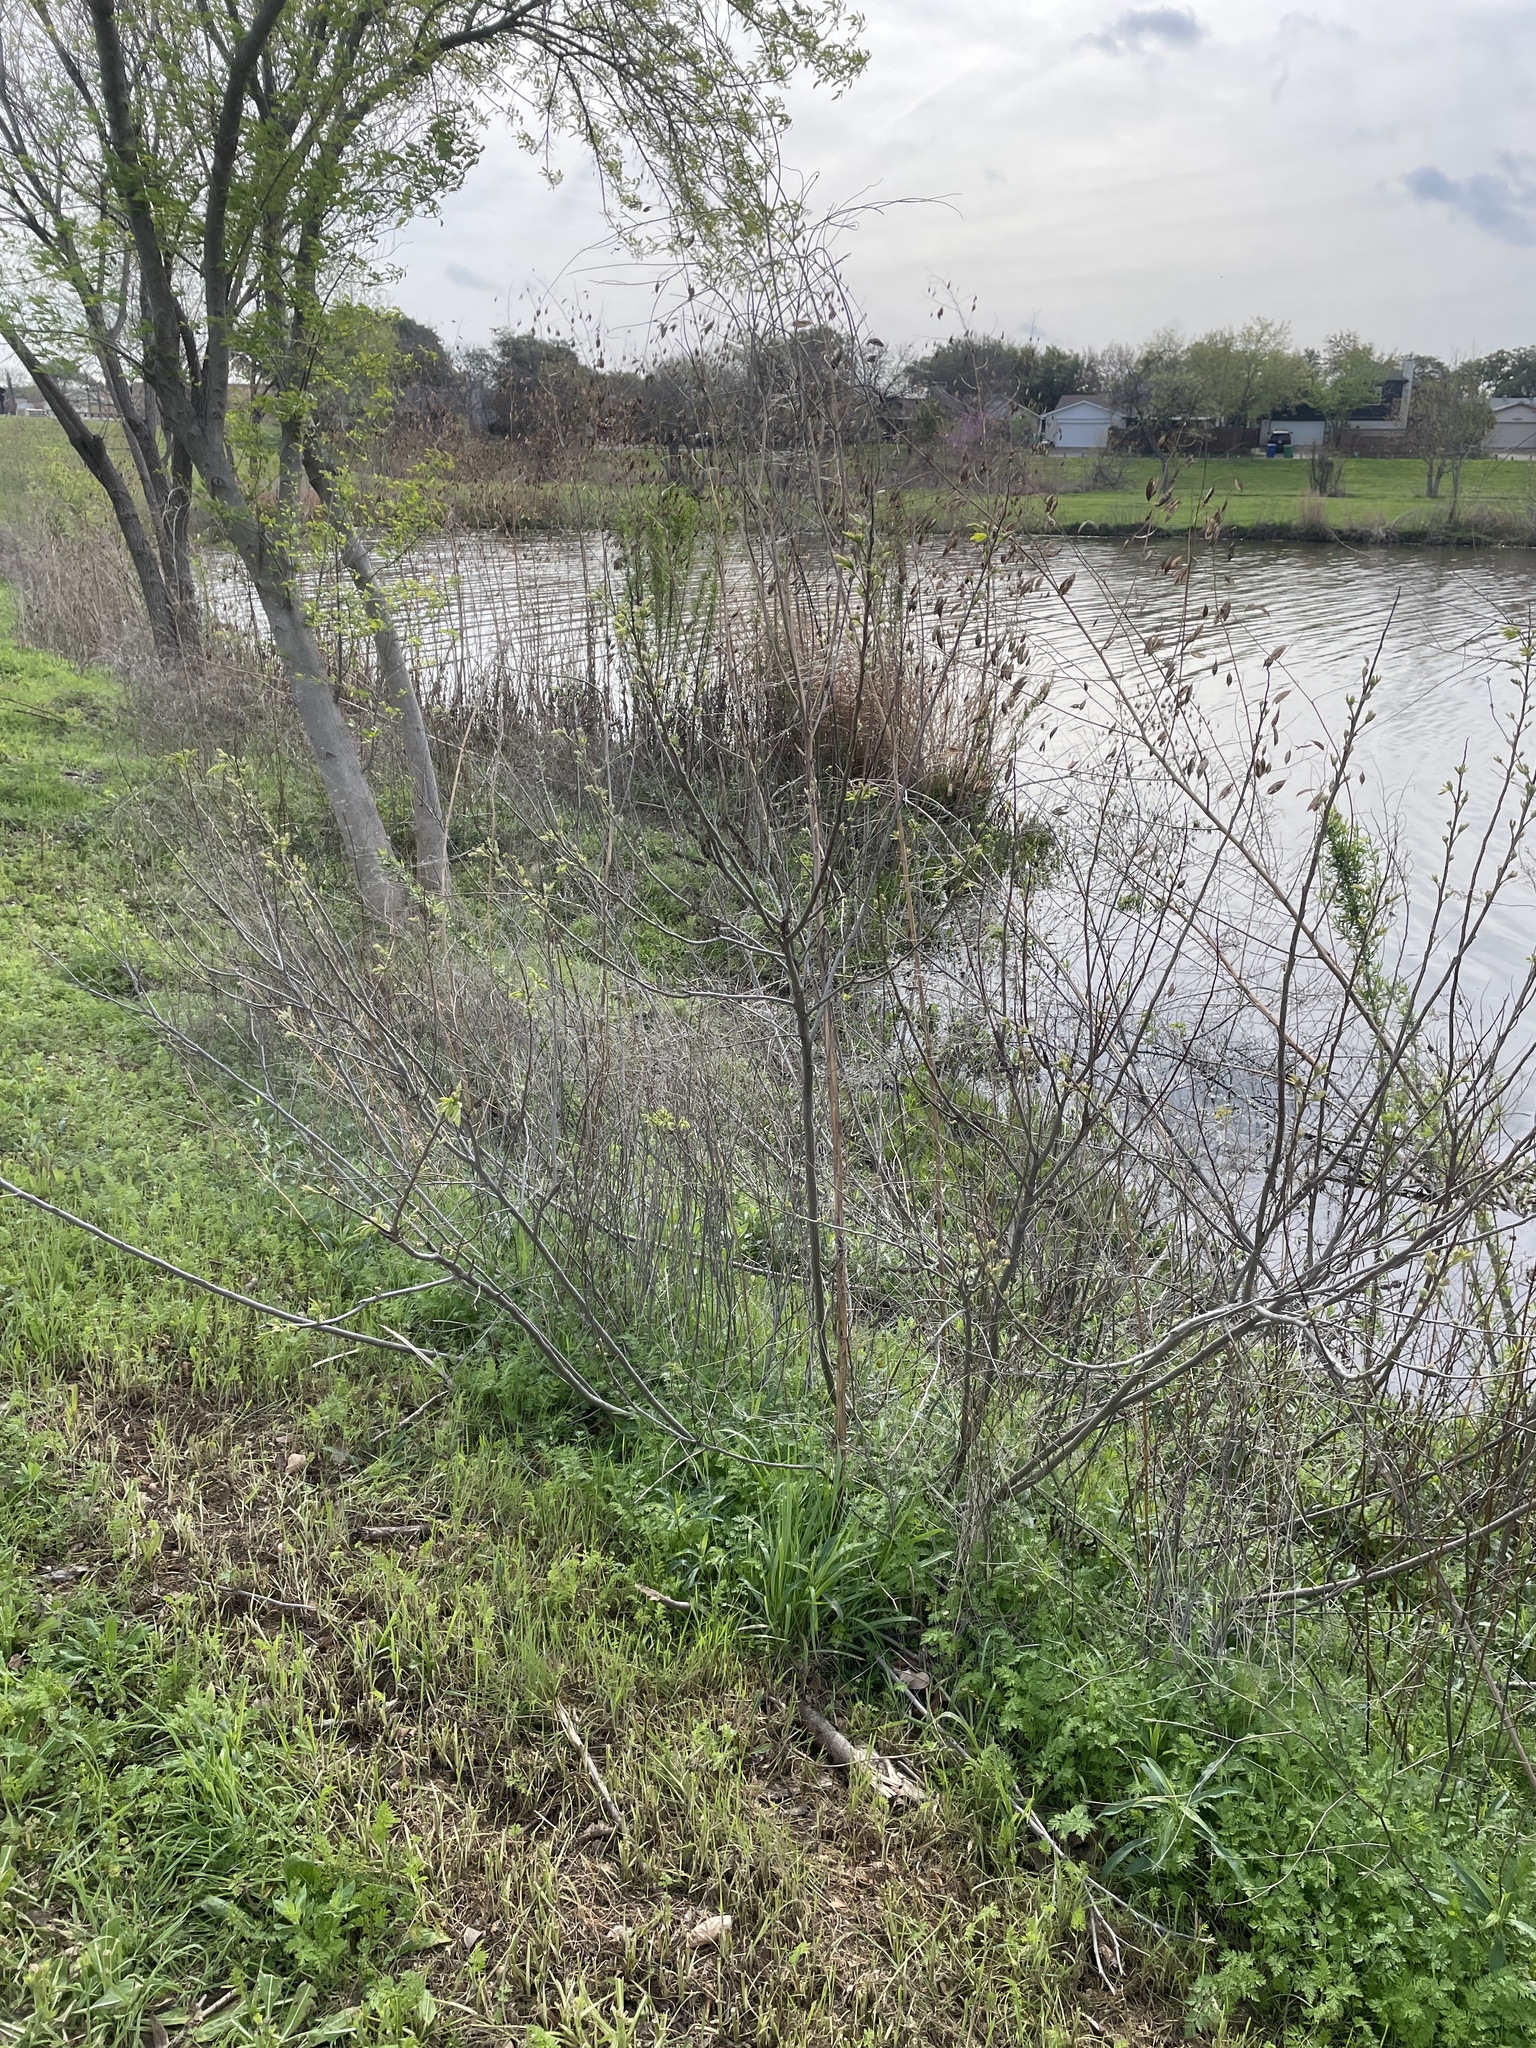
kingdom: Plantae
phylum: Tracheophyta
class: Magnoliopsida
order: Fabales
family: Fabaceae
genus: Amorpha
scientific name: Amorpha fruticosa
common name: False indigo
